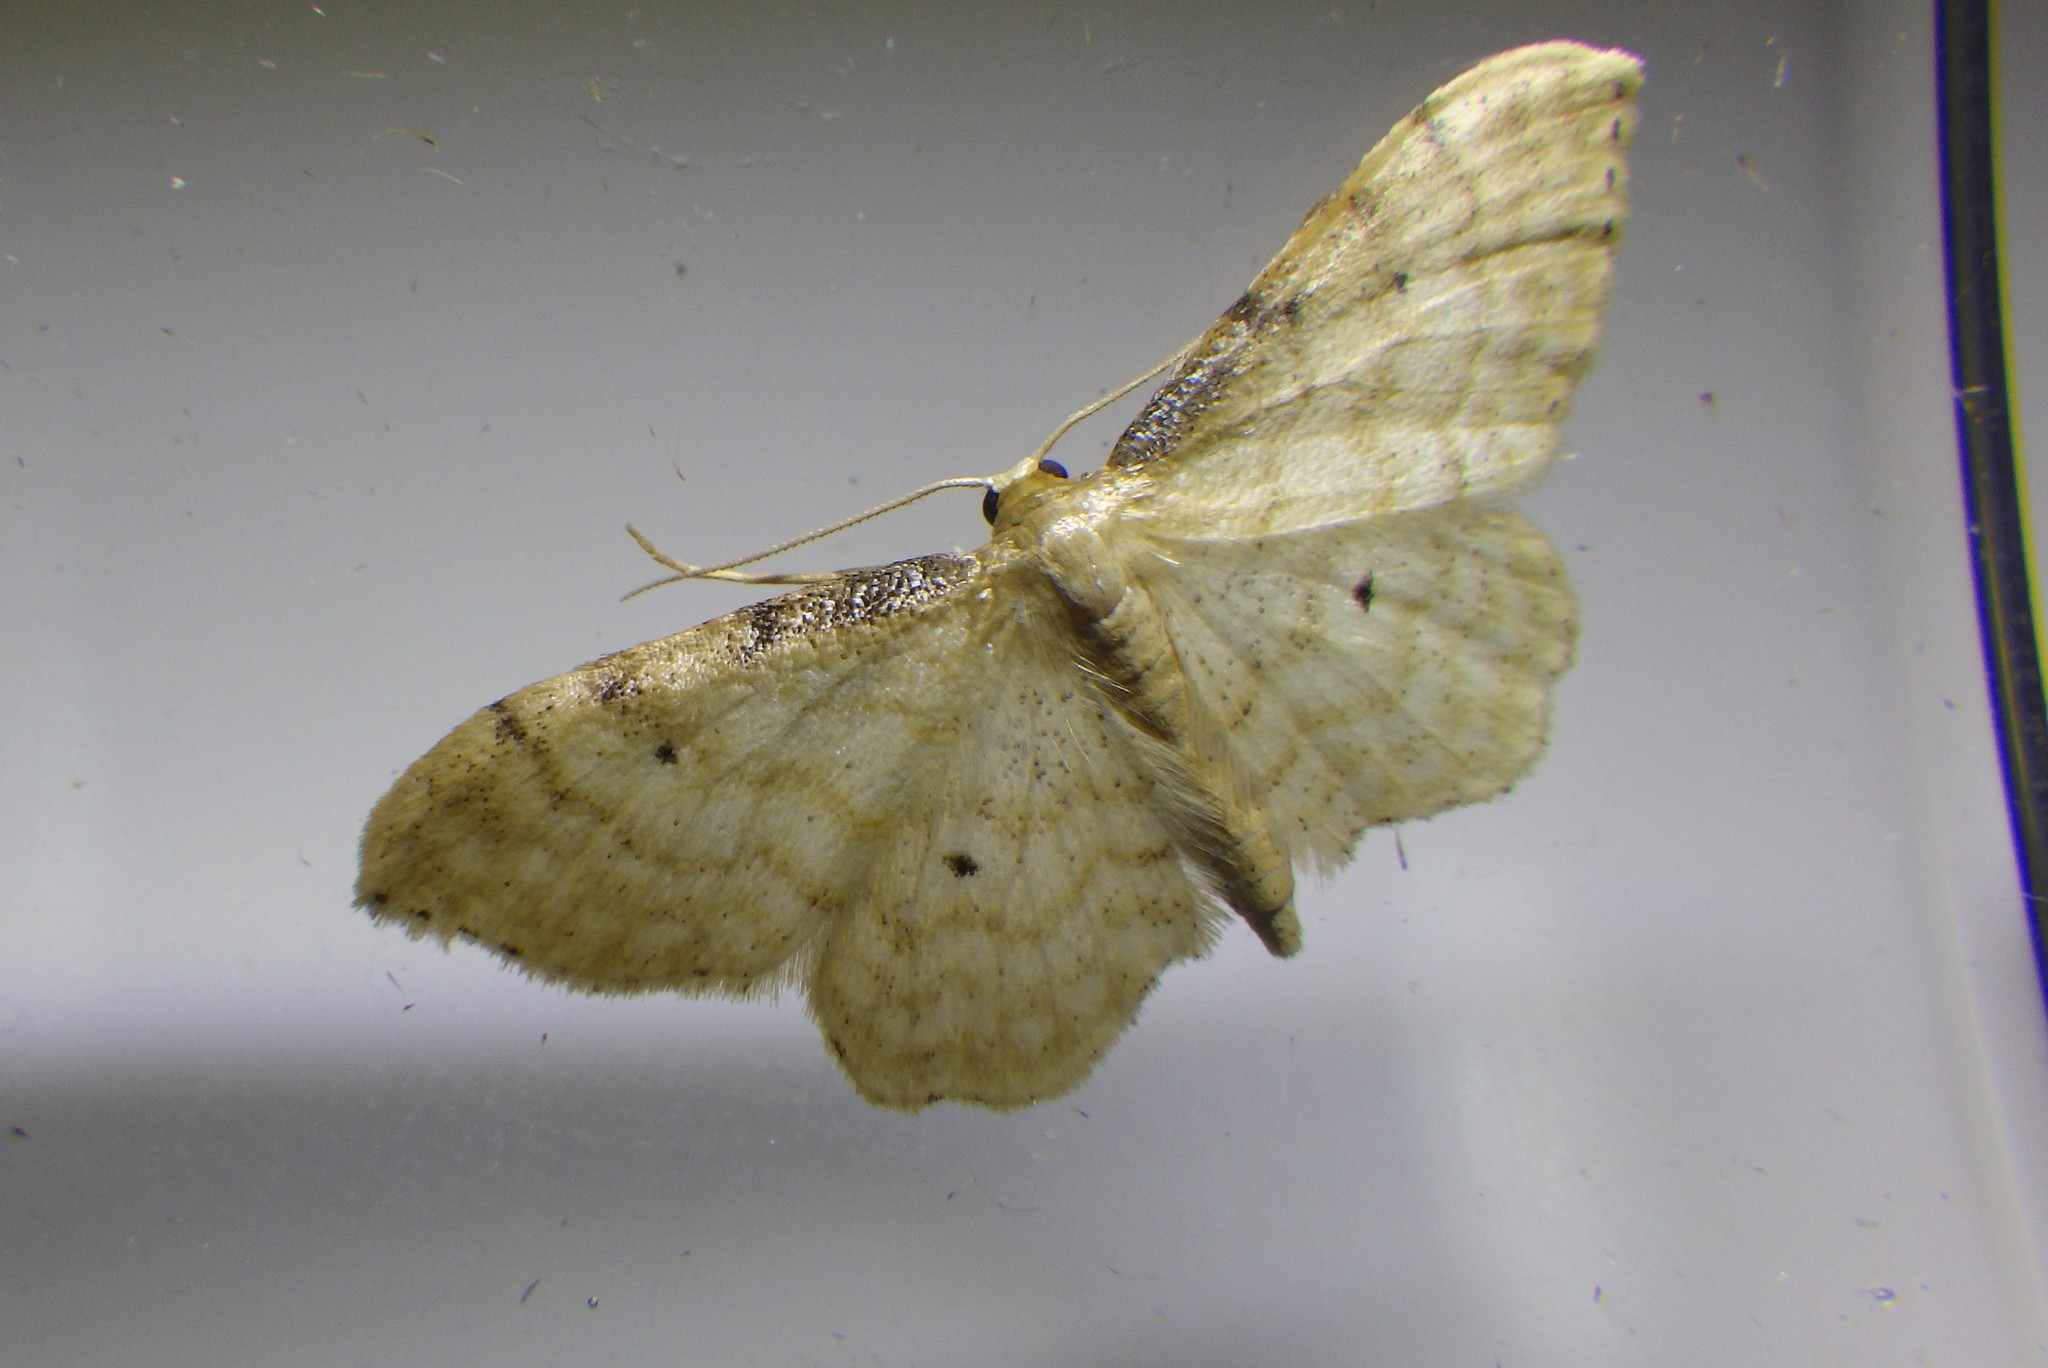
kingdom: Animalia
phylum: Arthropoda
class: Insecta
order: Lepidoptera
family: Geometridae
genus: Idaea
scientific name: Idaea fuscovenosa
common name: Dwarf cream wave
